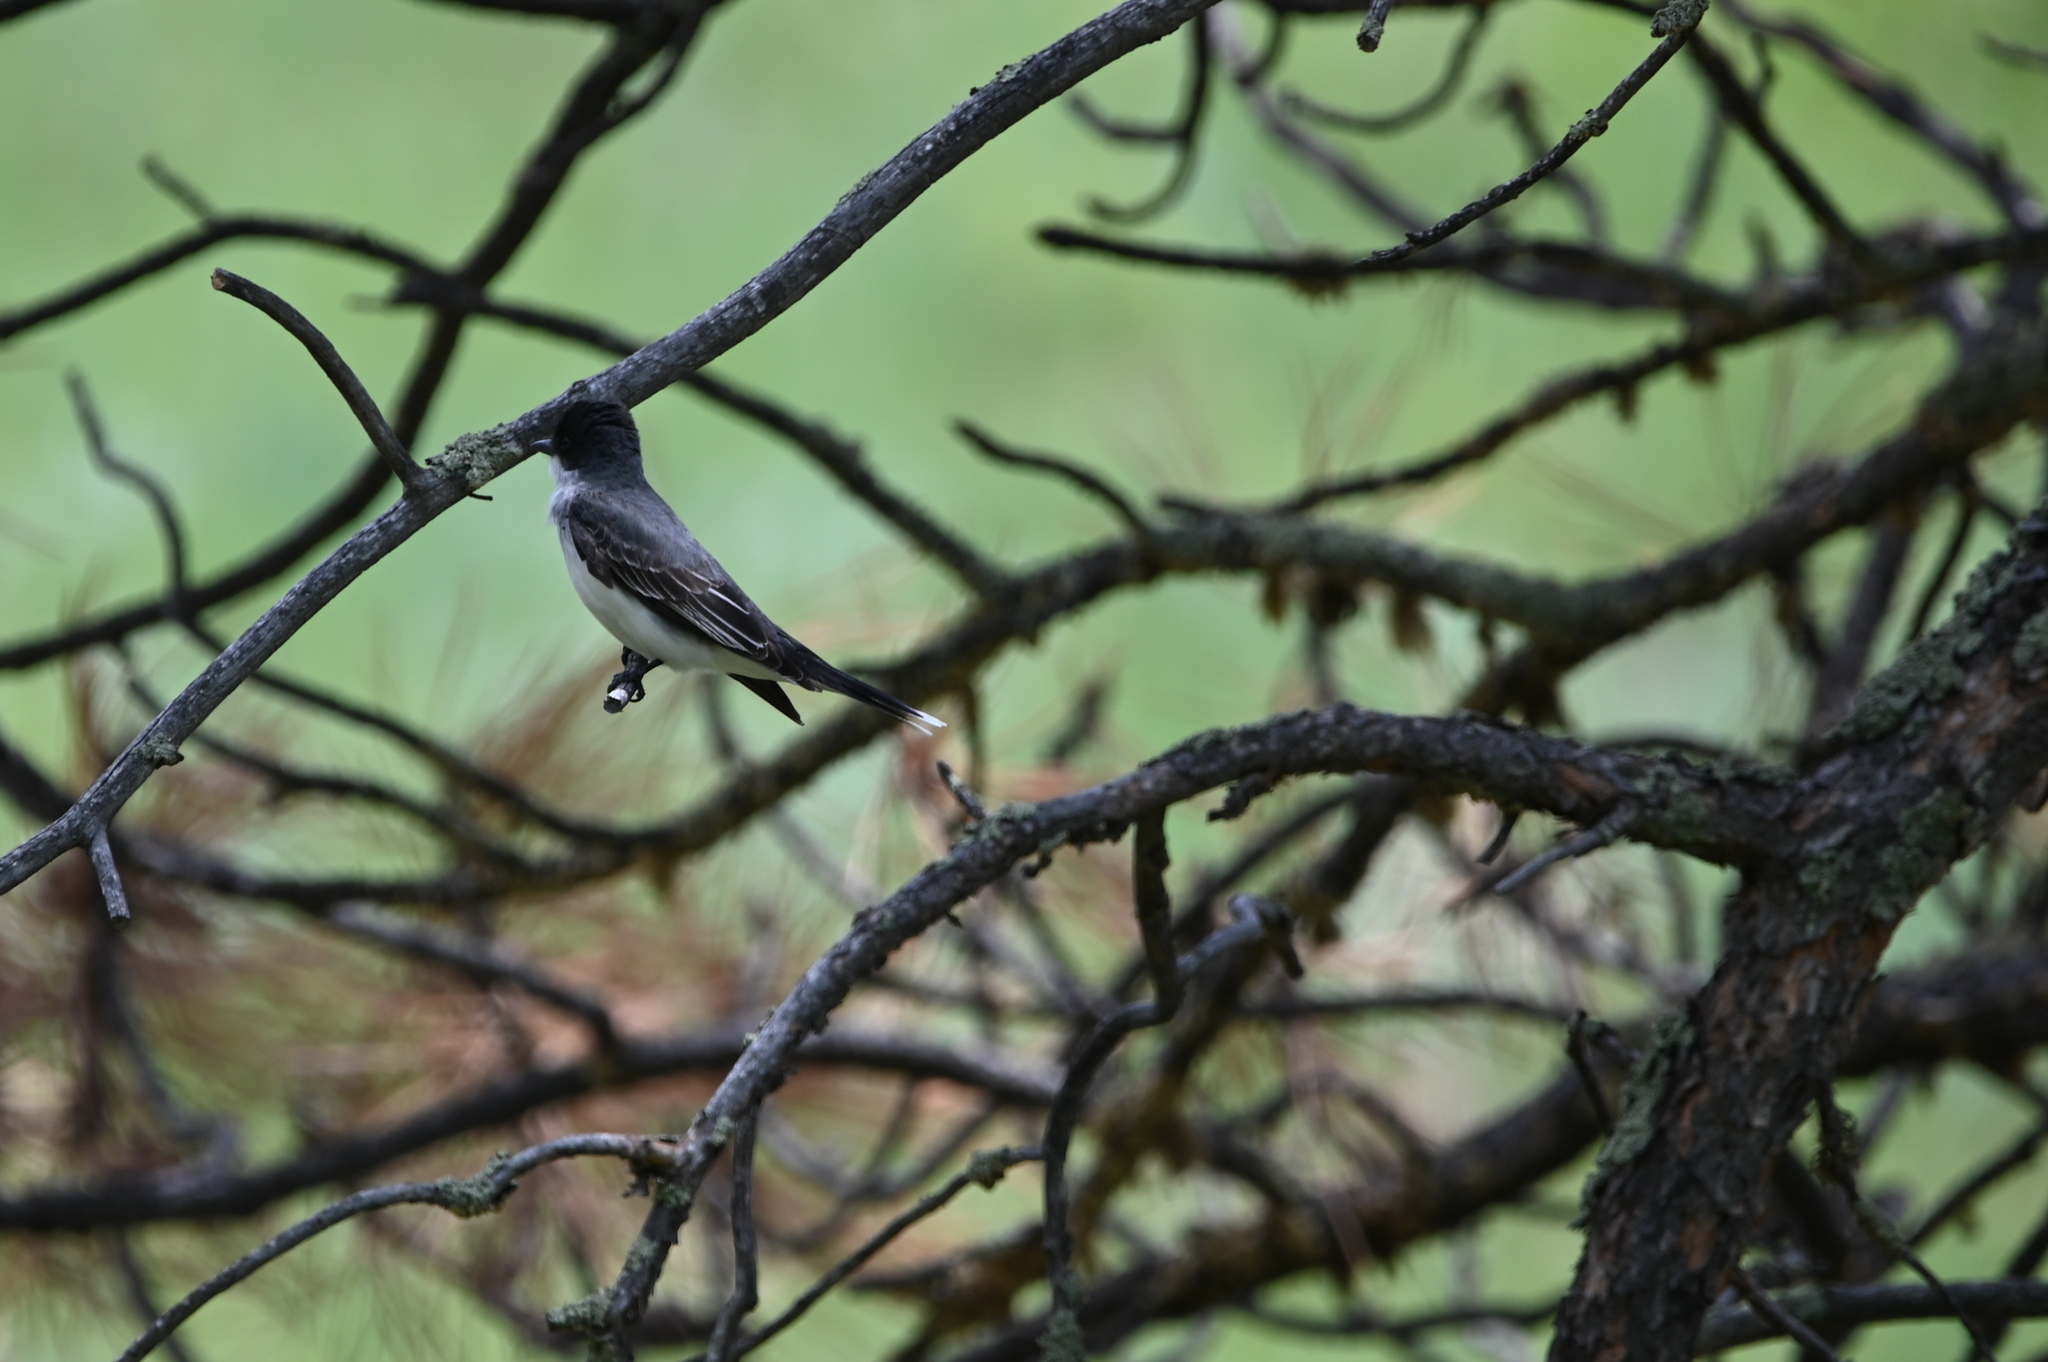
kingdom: Animalia
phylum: Chordata
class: Aves
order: Passeriformes
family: Tyrannidae
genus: Tyrannus
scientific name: Tyrannus tyrannus
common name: Eastern kingbird
